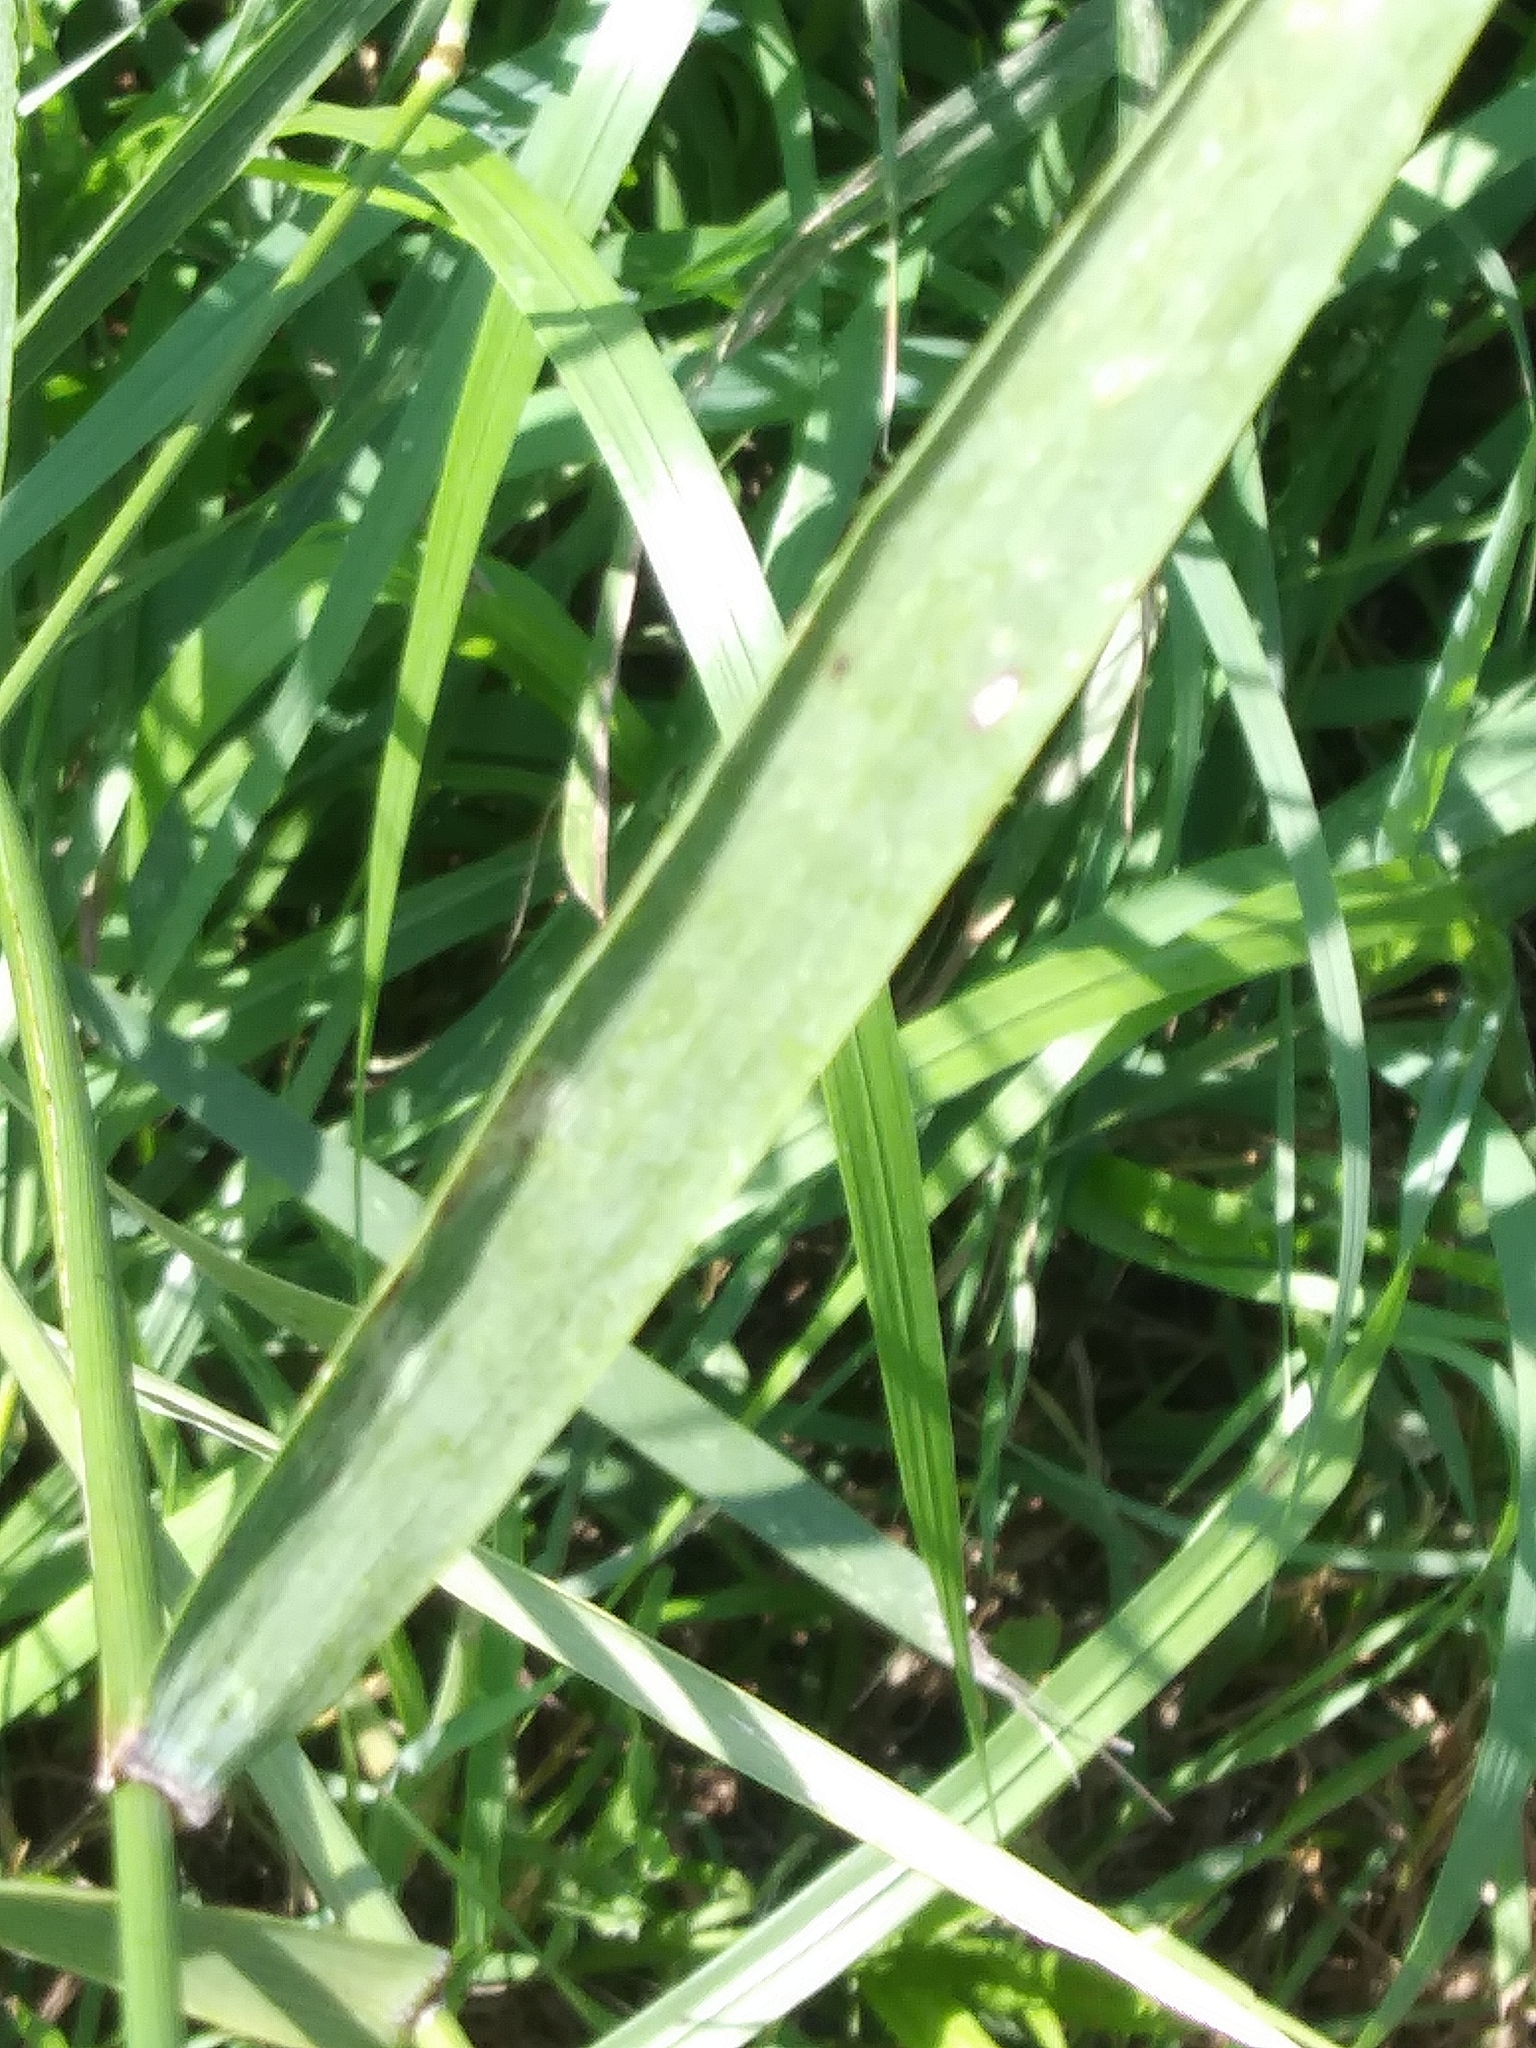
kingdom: Plantae
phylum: Tracheophyta
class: Liliopsida
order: Poales
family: Poaceae
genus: Elymus
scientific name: Elymus virginicus
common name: Common eastern wildrye
